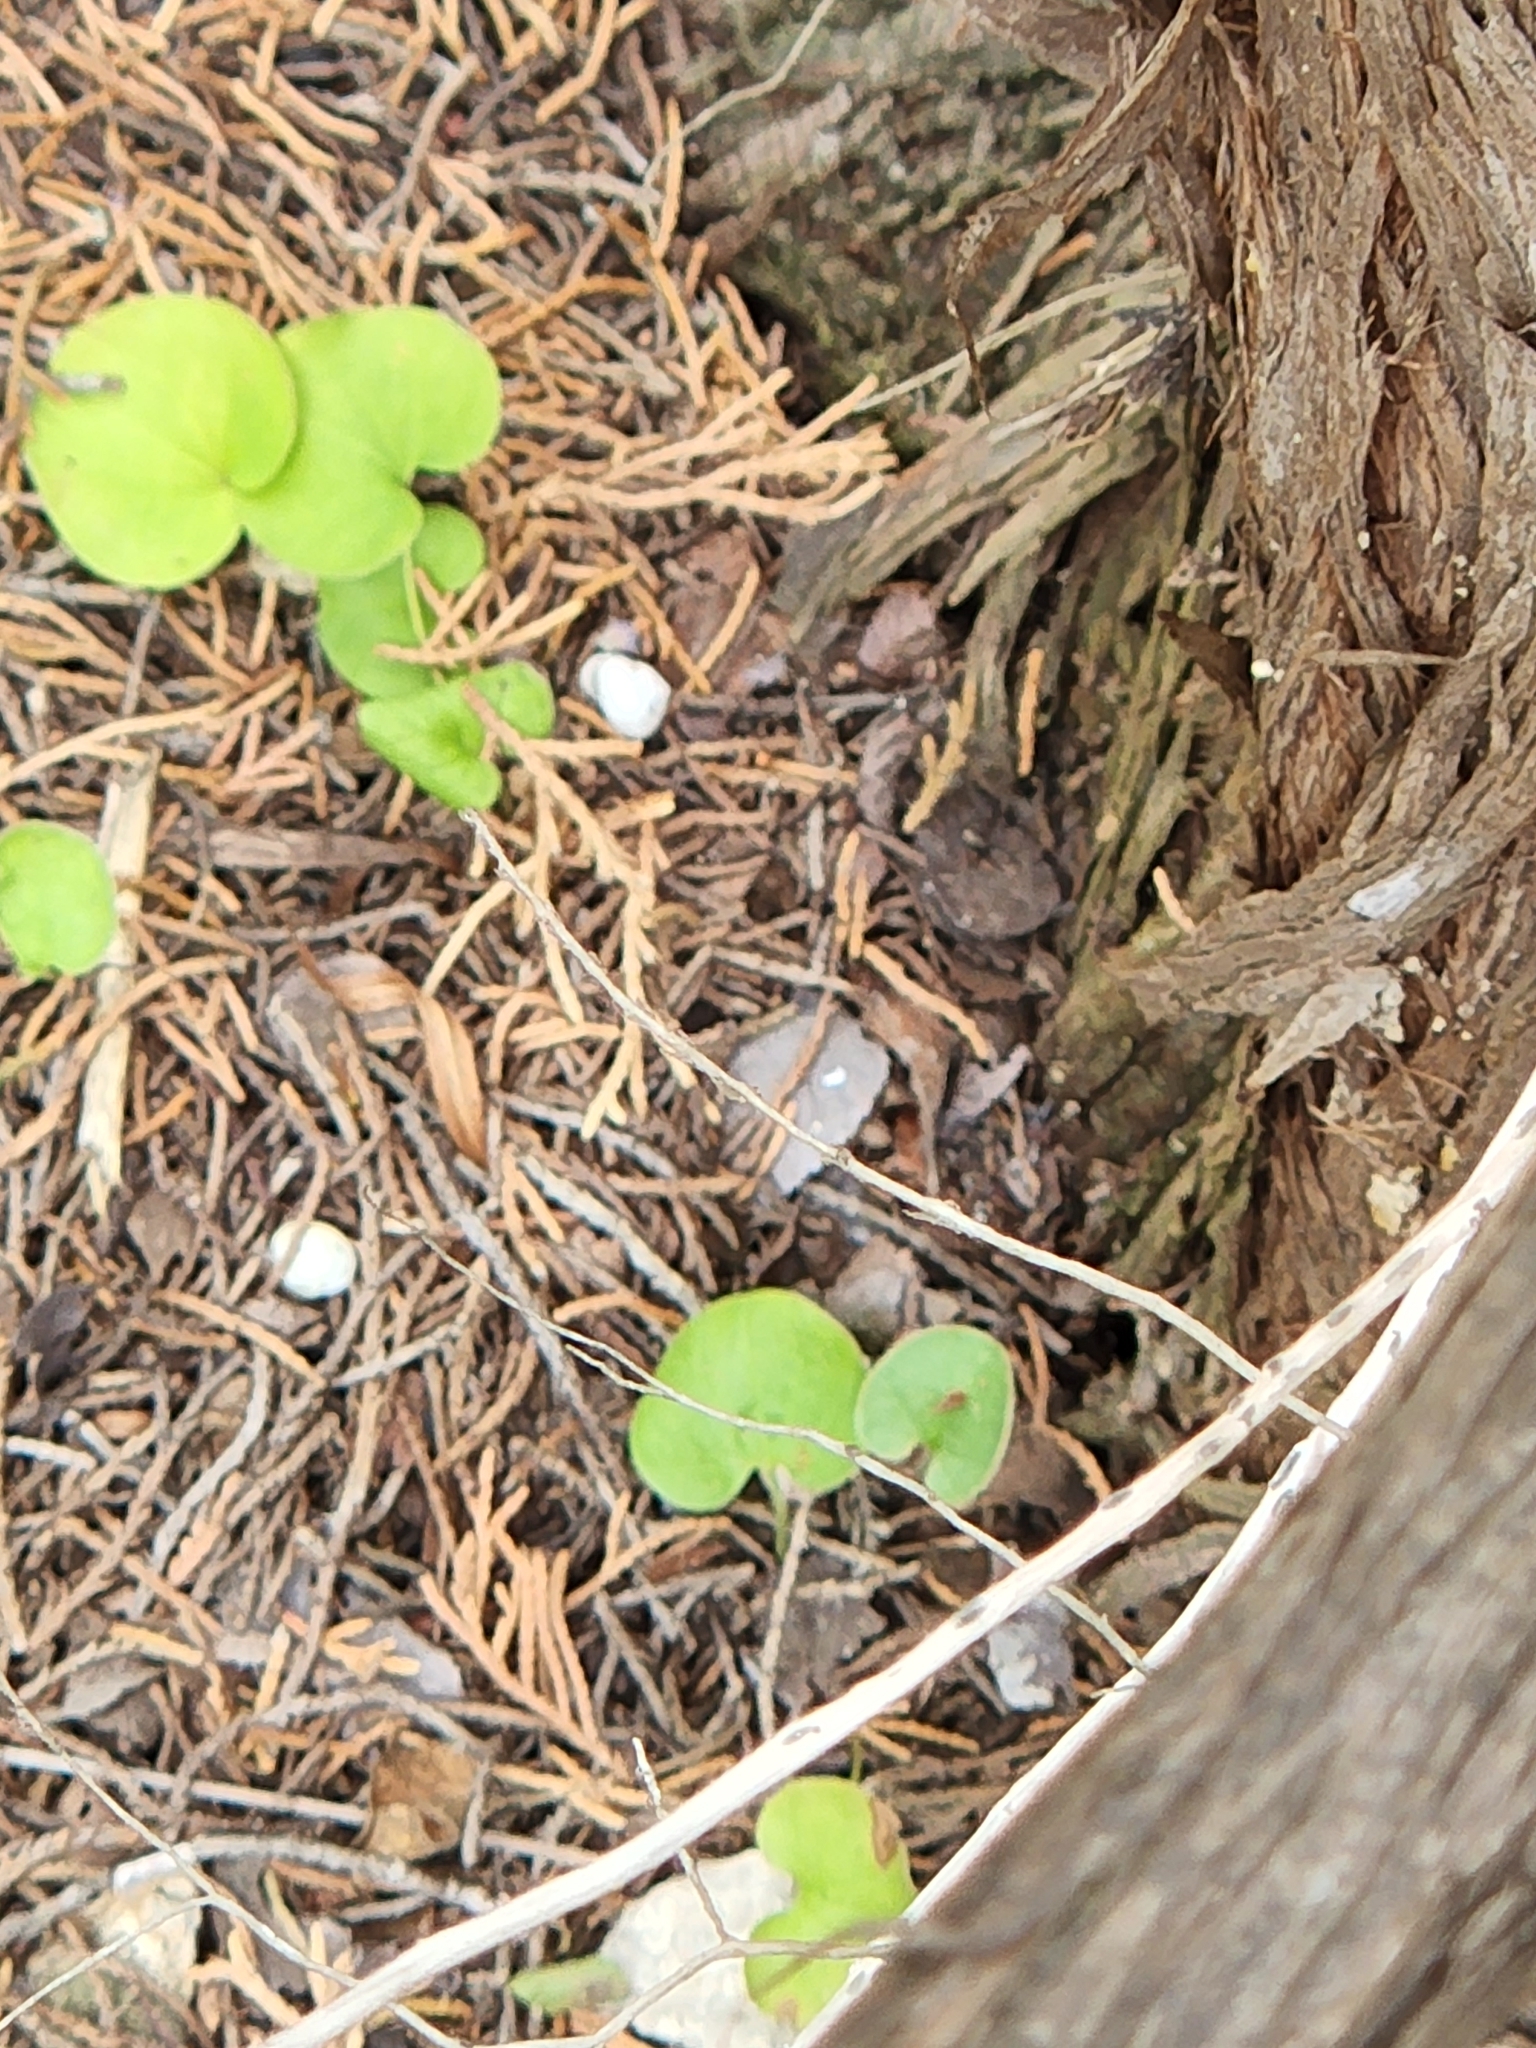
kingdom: Plantae
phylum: Tracheophyta
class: Magnoliopsida
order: Solanales
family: Convolvulaceae
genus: Dichondra
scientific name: Dichondra carolinensis
